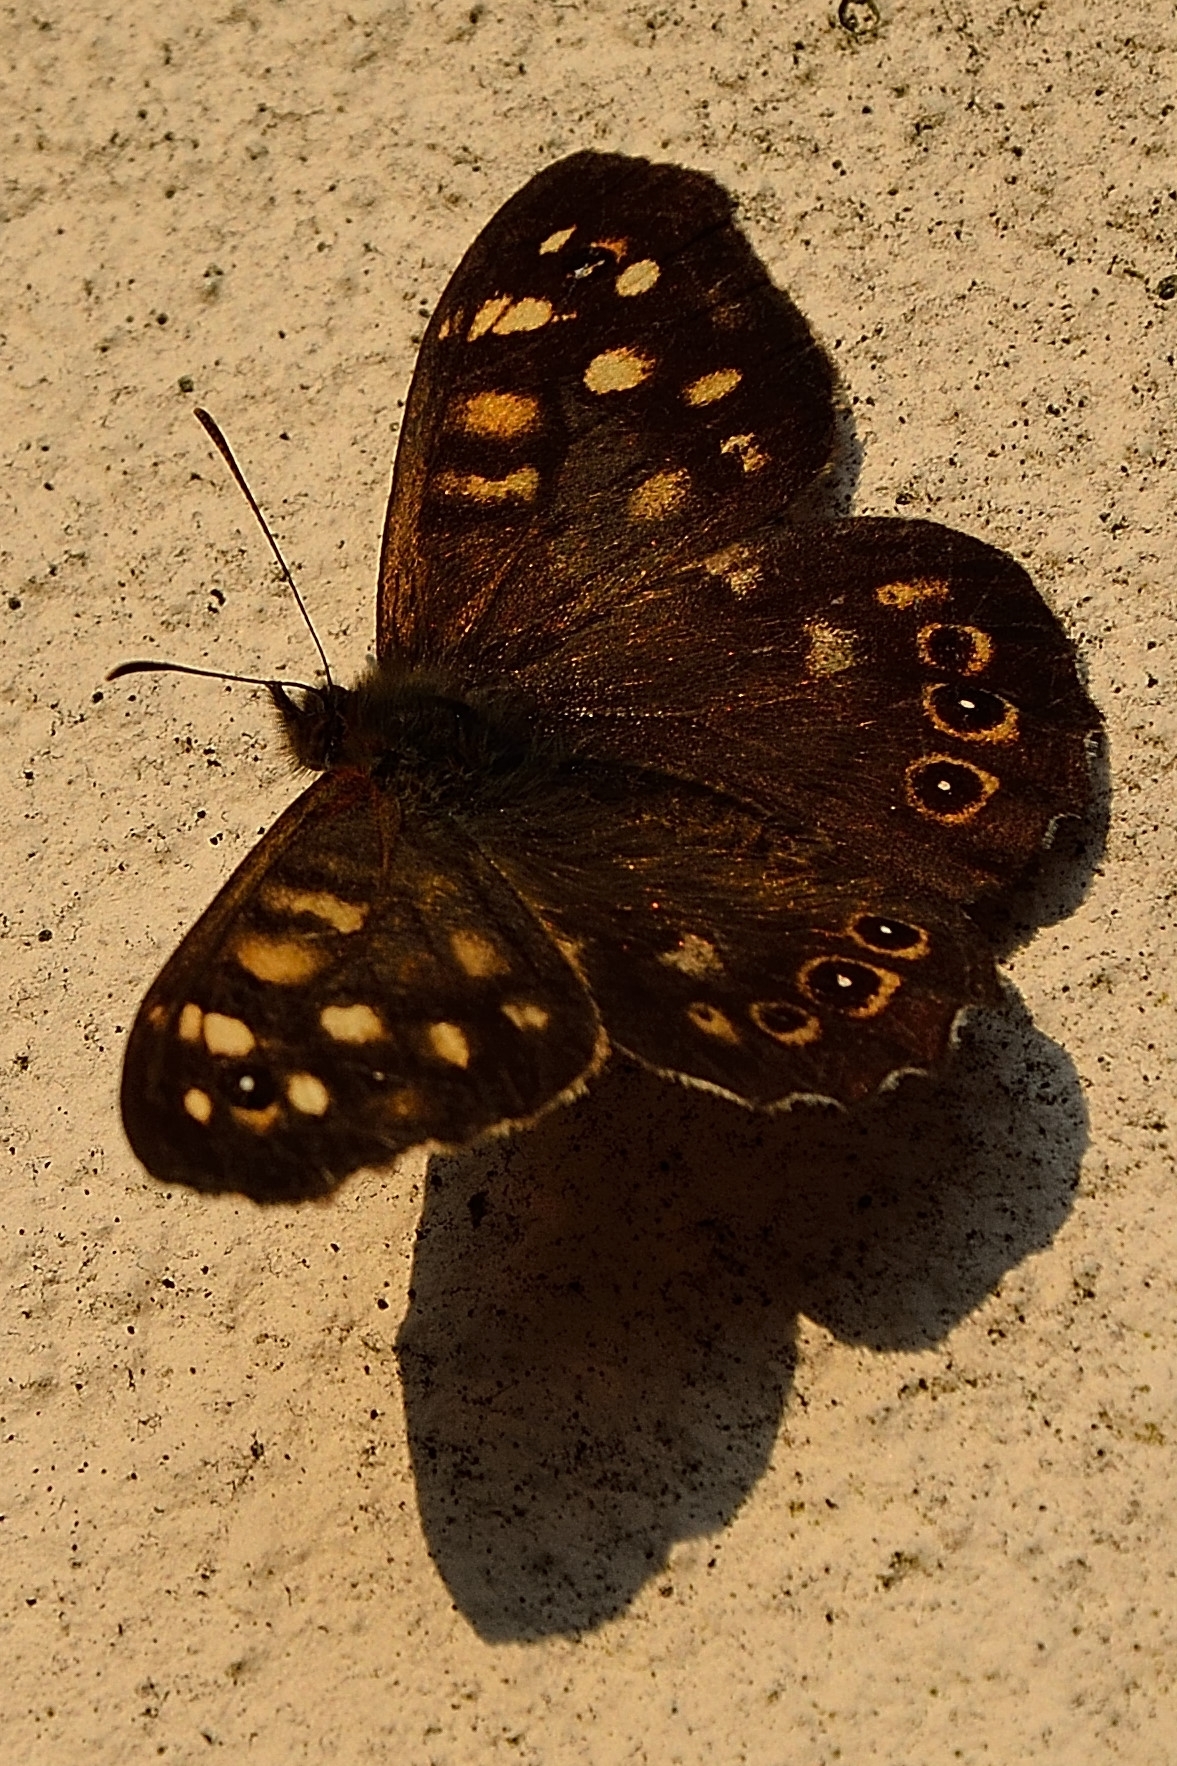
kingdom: Animalia
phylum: Arthropoda
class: Insecta
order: Lepidoptera
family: Nymphalidae
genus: Pararge
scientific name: Pararge aegeria
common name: Speckled wood
